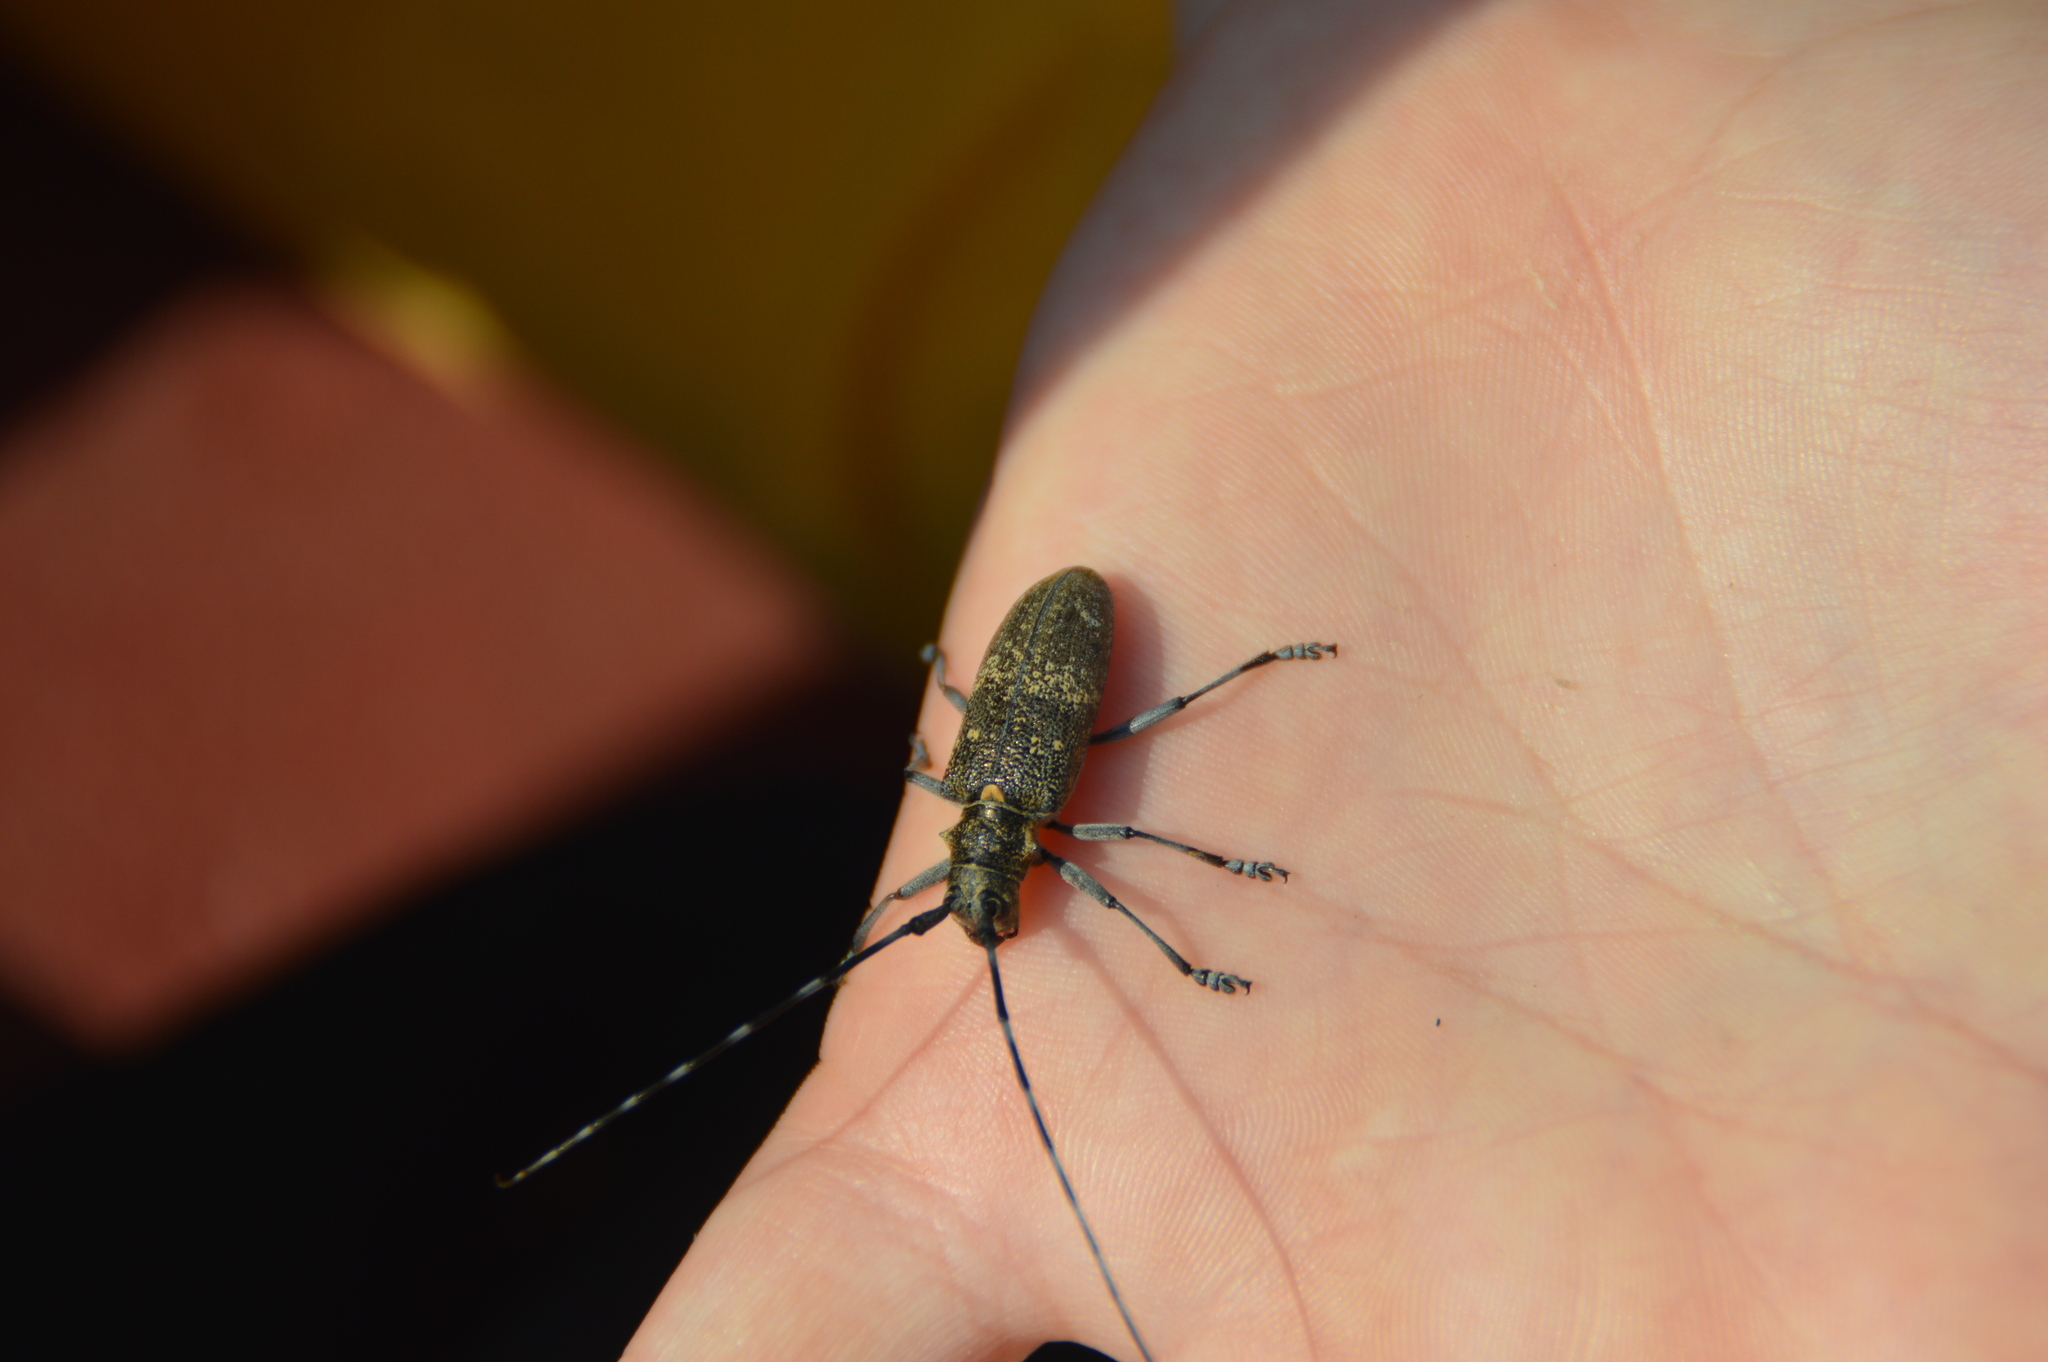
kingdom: Animalia
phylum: Arthropoda
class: Insecta
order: Coleoptera
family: Cerambycidae
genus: Monochamus
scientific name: Monochamus galloprovincialis
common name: Pine sawyer
